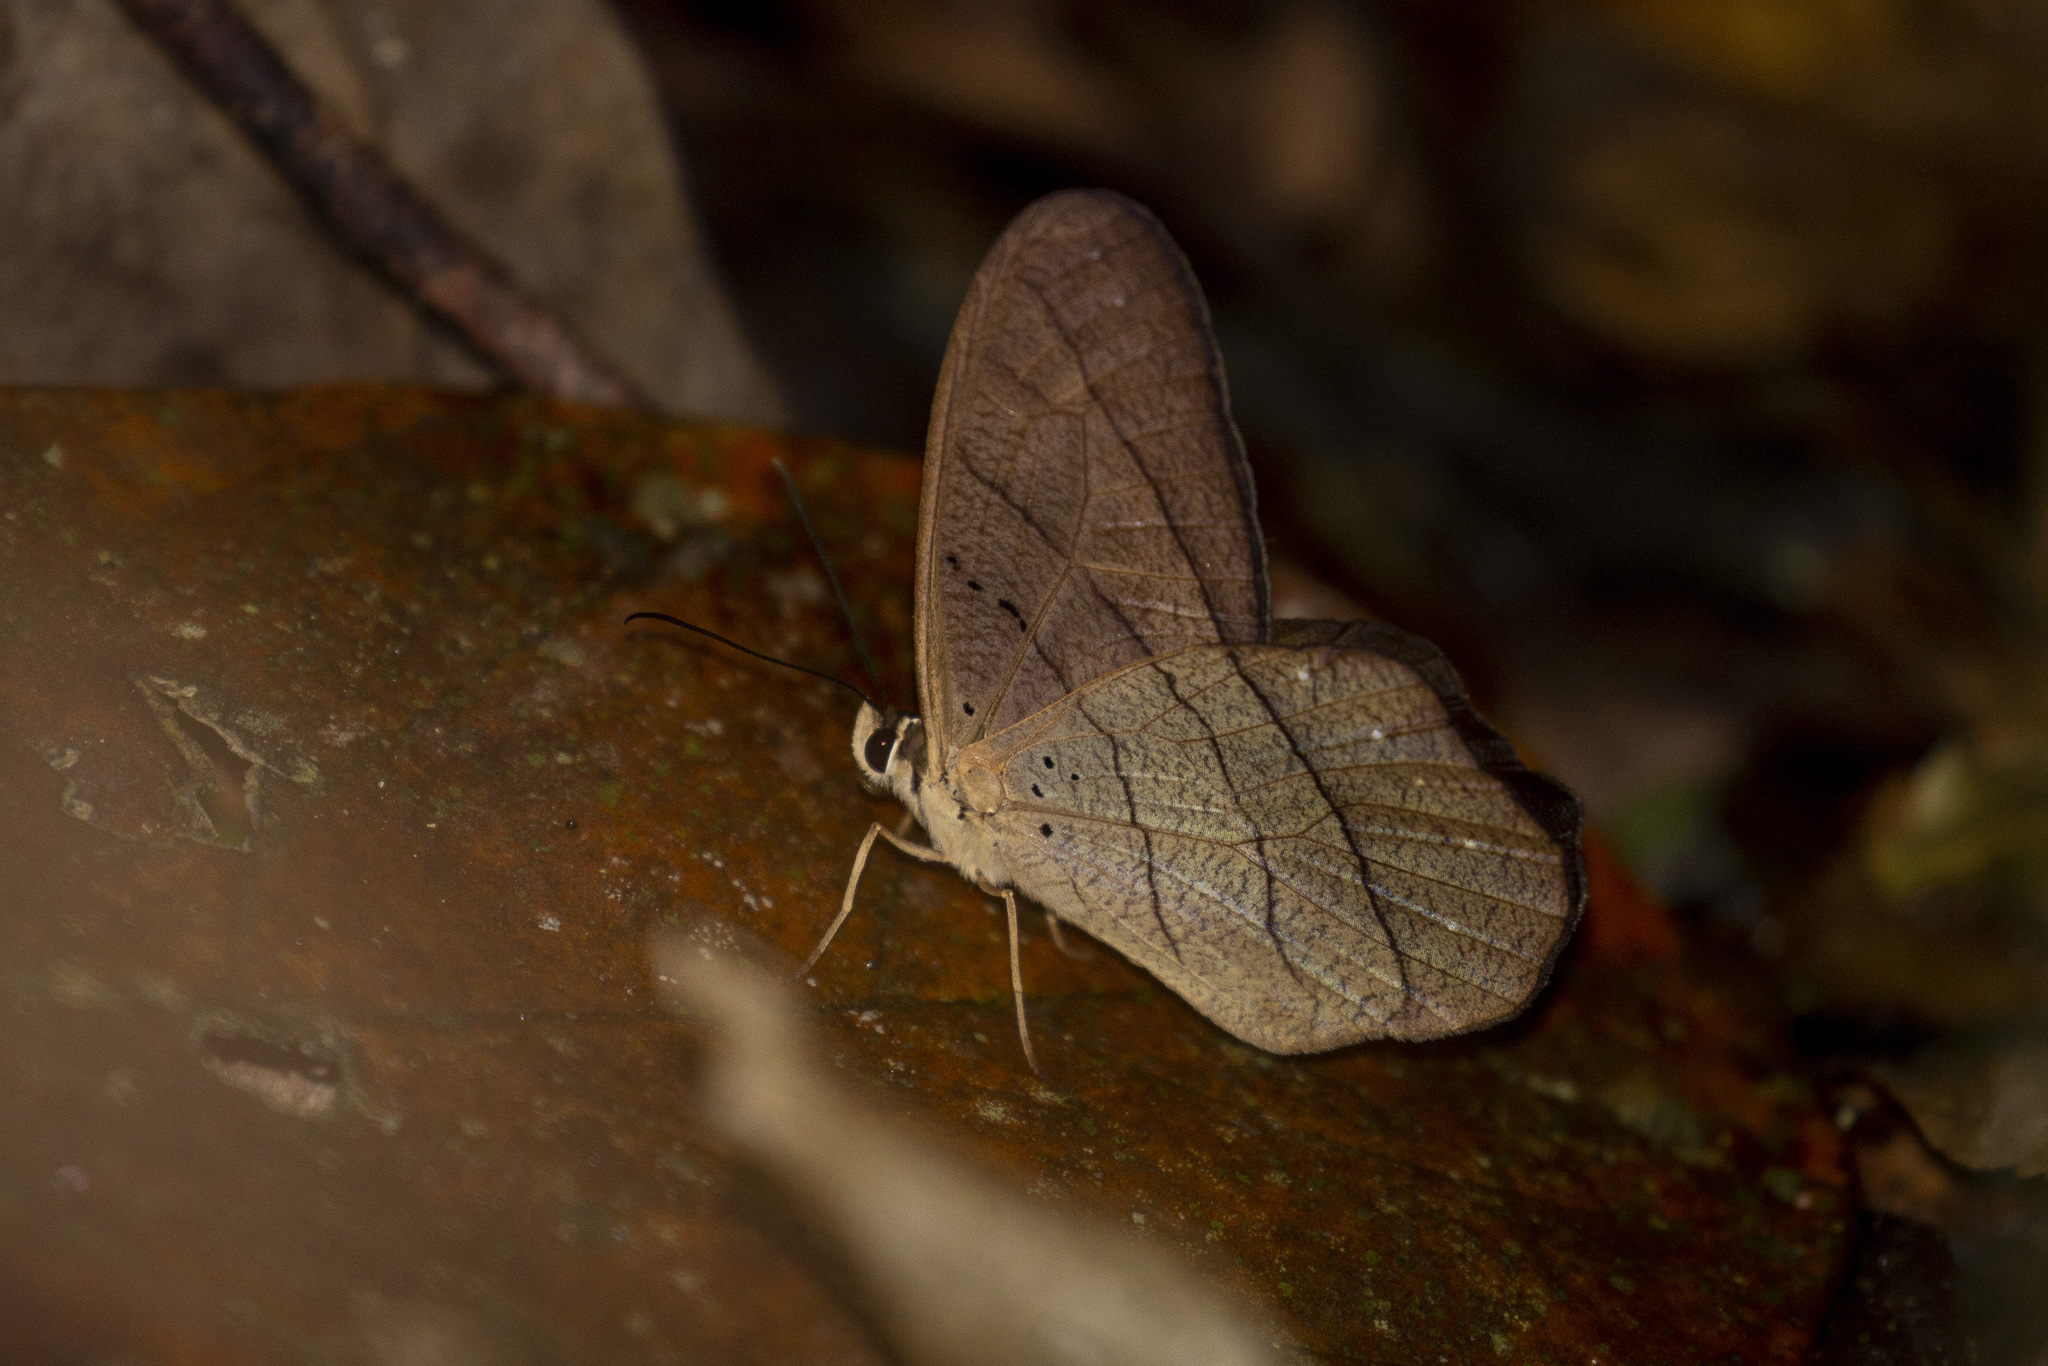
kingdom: Animalia
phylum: Arthropoda
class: Insecta
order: Lepidoptera
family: Nymphalidae
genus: Pierella
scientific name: Pierella kesselringi
